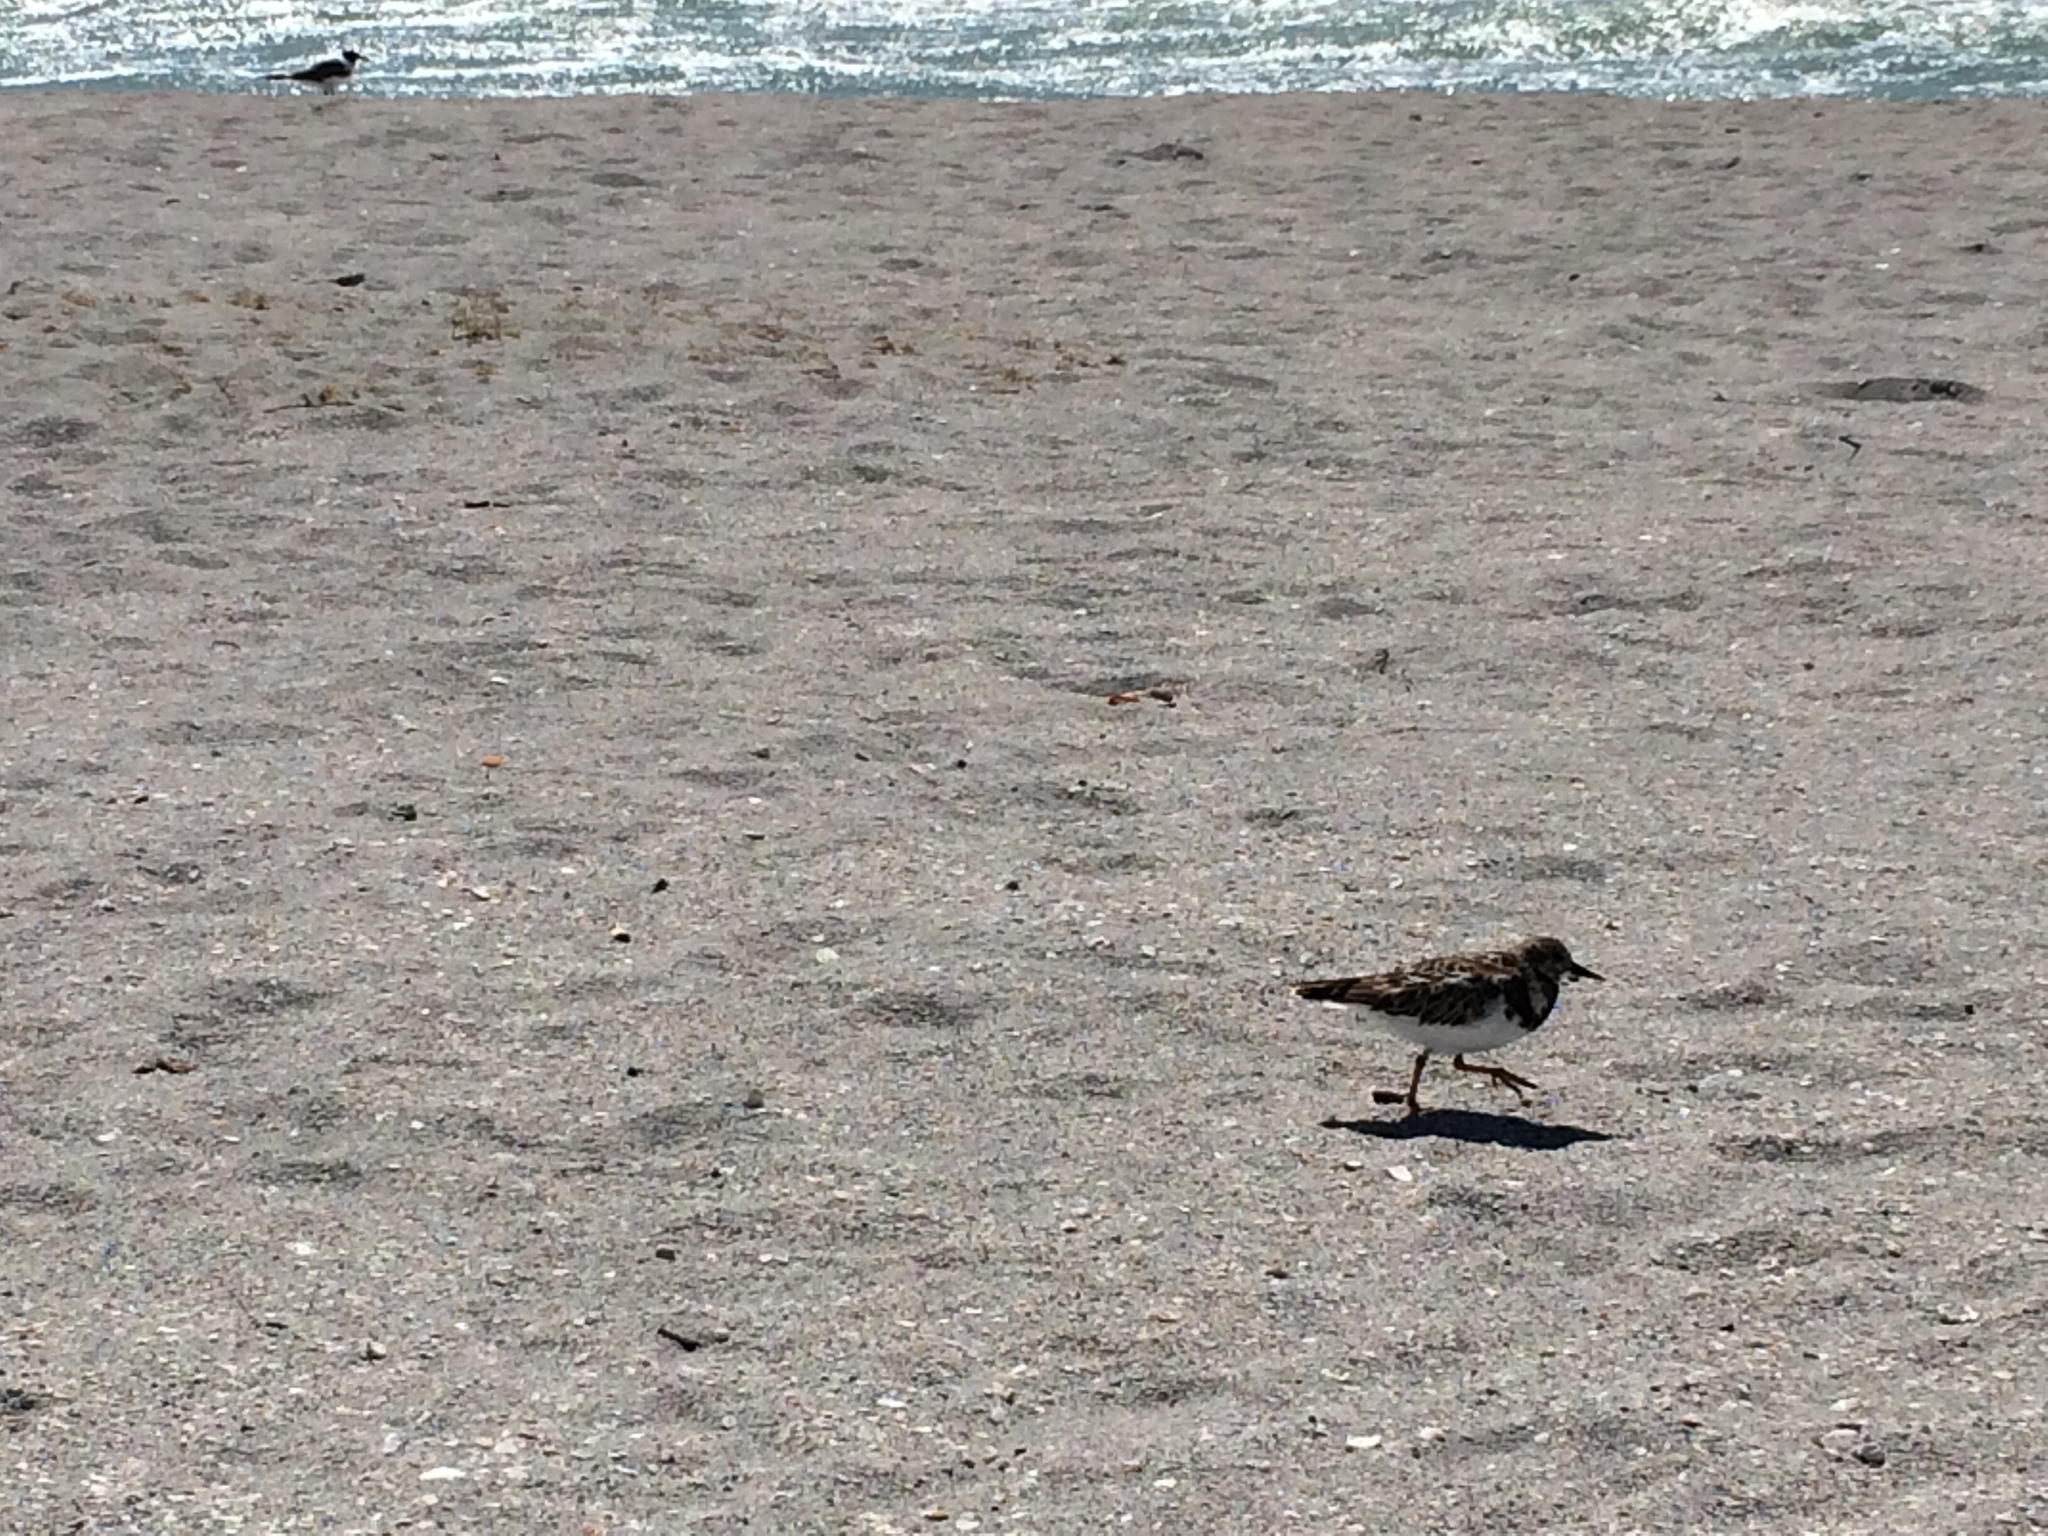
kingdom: Animalia
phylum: Chordata
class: Aves
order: Charadriiformes
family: Scolopacidae
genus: Arenaria
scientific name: Arenaria interpres
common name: Ruddy turnstone
